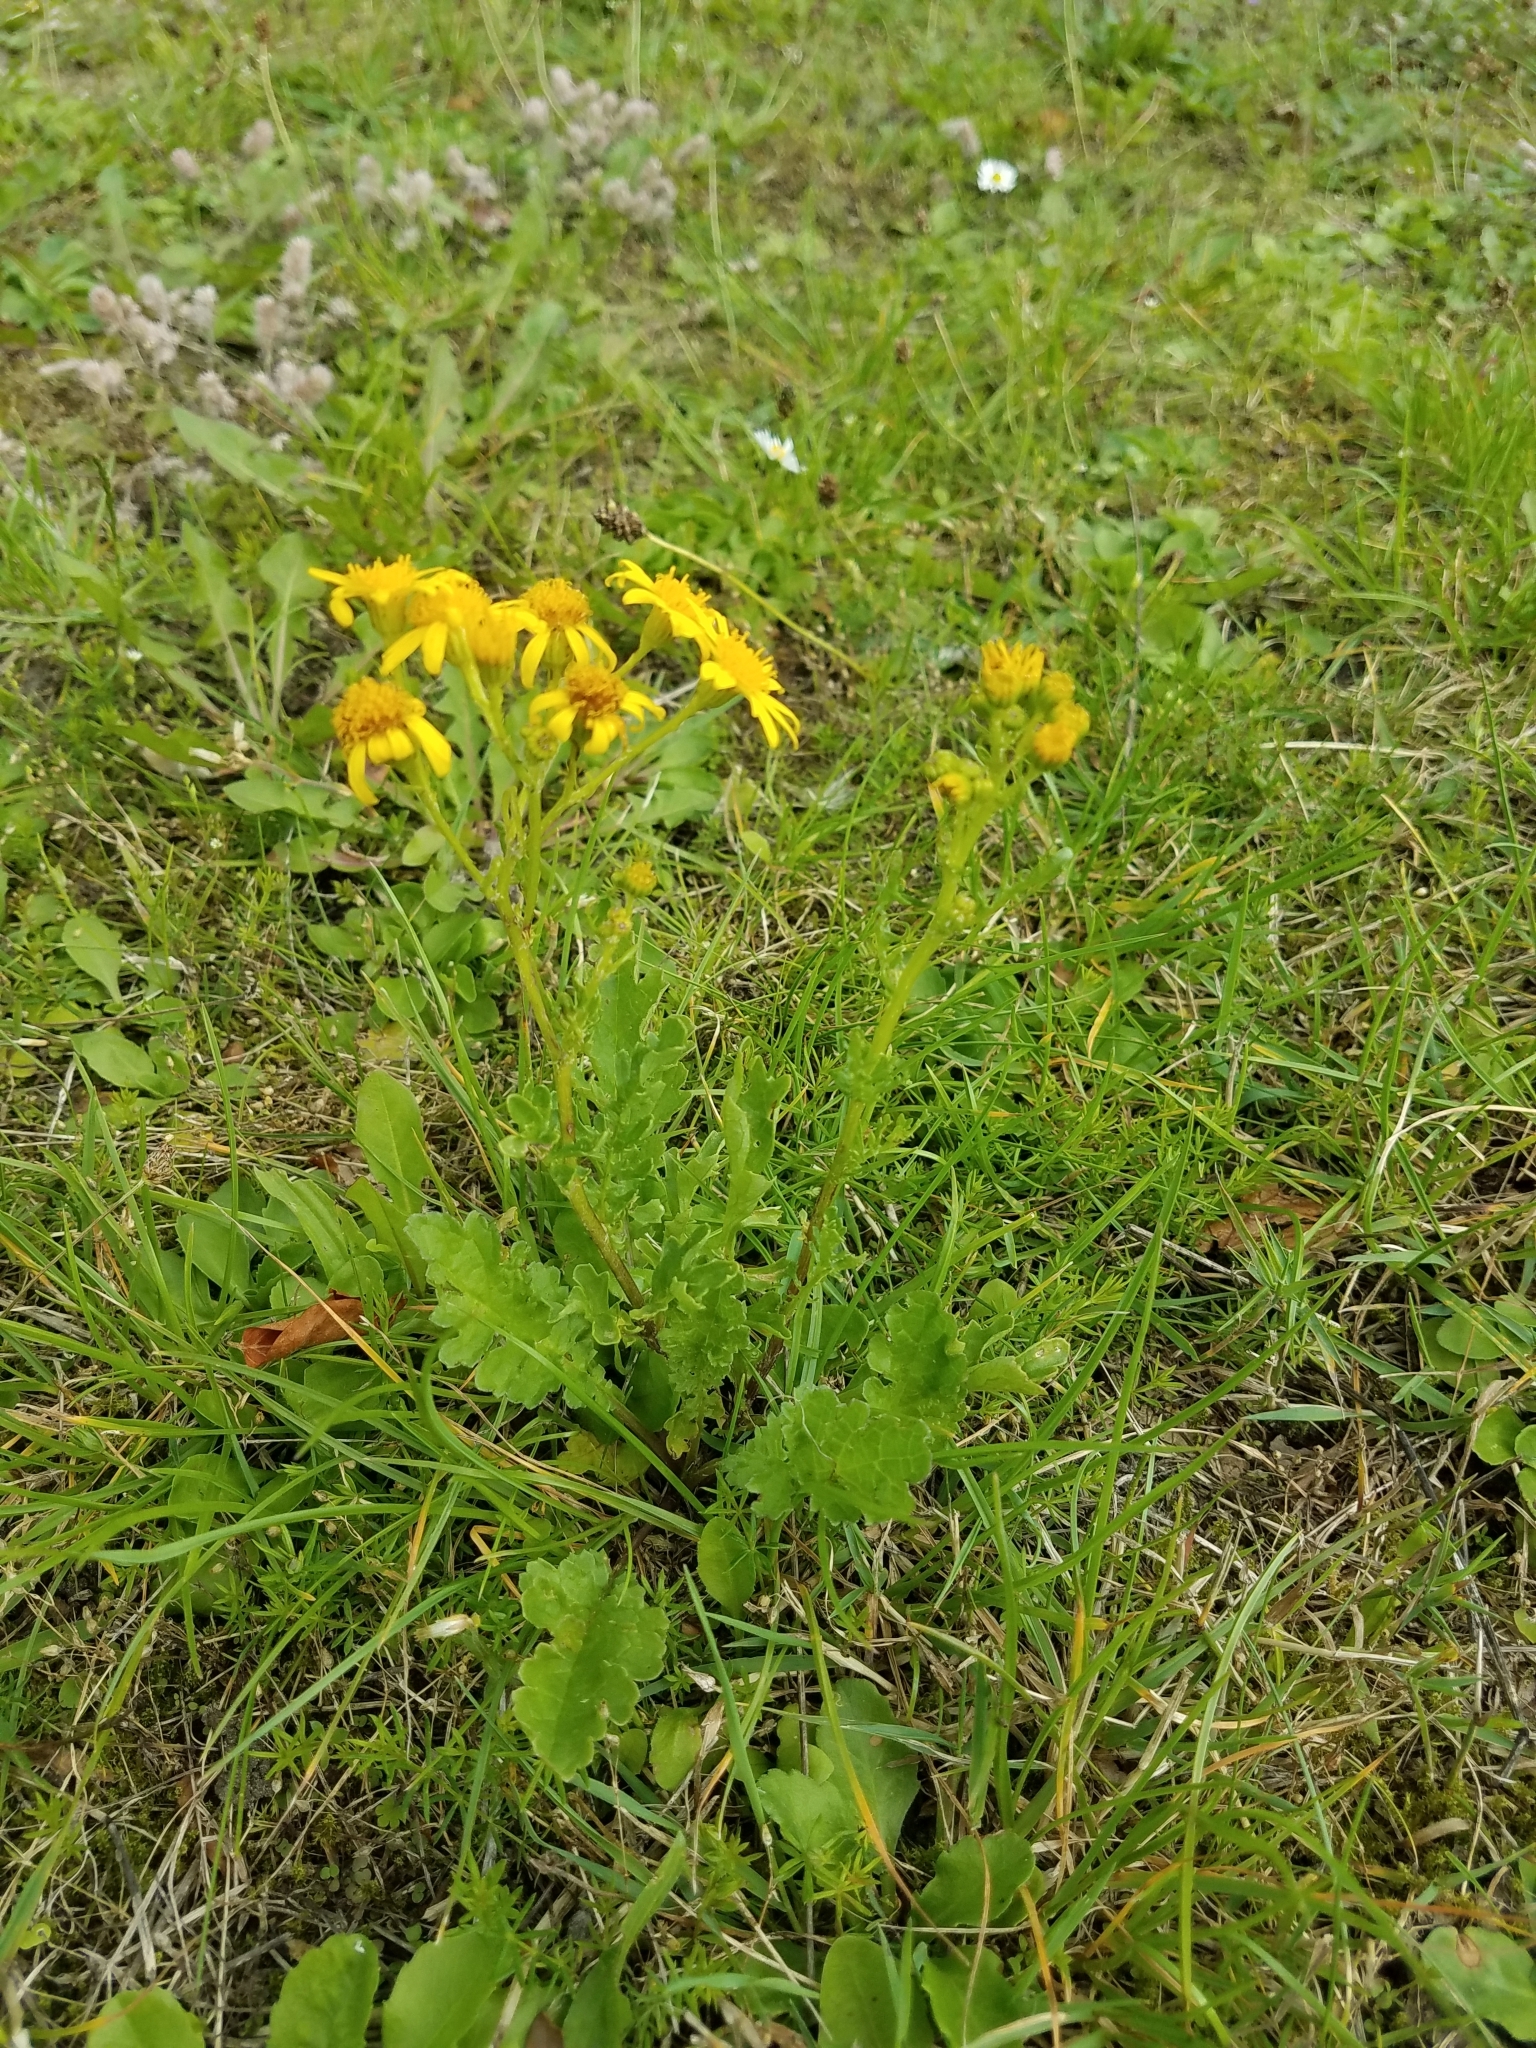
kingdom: Plantae
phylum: Tracheophyta
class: Magnoliopsida
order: Asterales
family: Asteraceae
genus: Jacobaea
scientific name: Jacobaea vulgaris
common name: Stinking willie
